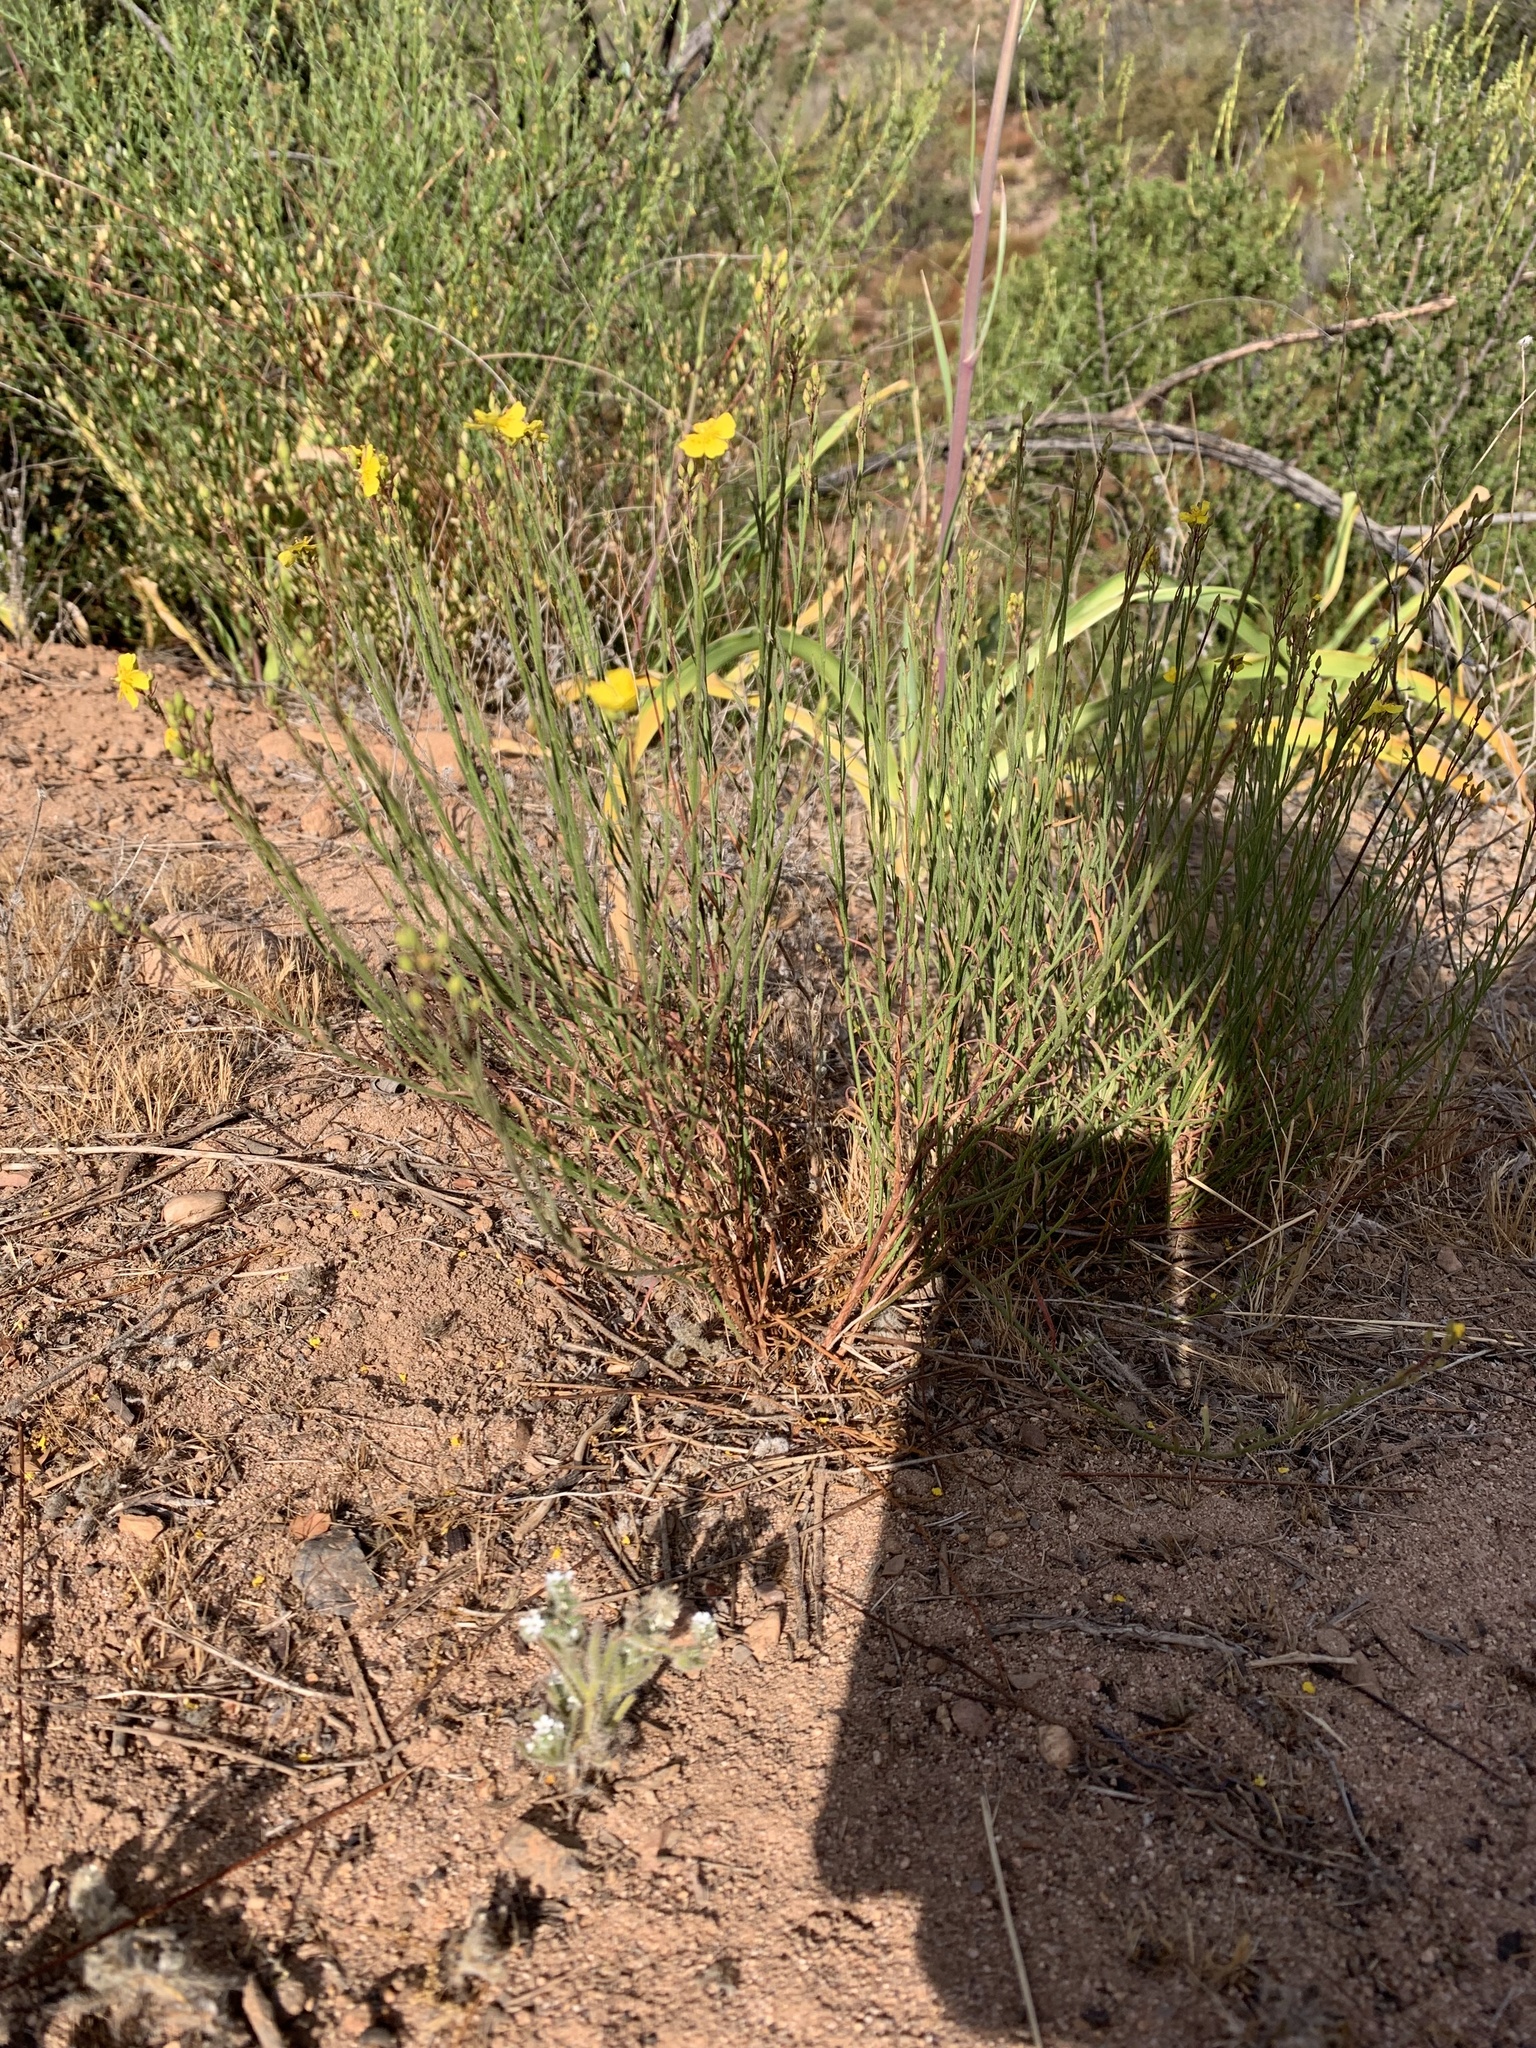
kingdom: Plantae
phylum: Tracheophyta
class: Magnoliopsida
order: Malvales
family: Cistaceae
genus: Crocanthemum
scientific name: Crocanthemum scoparium
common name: Broom-rose
